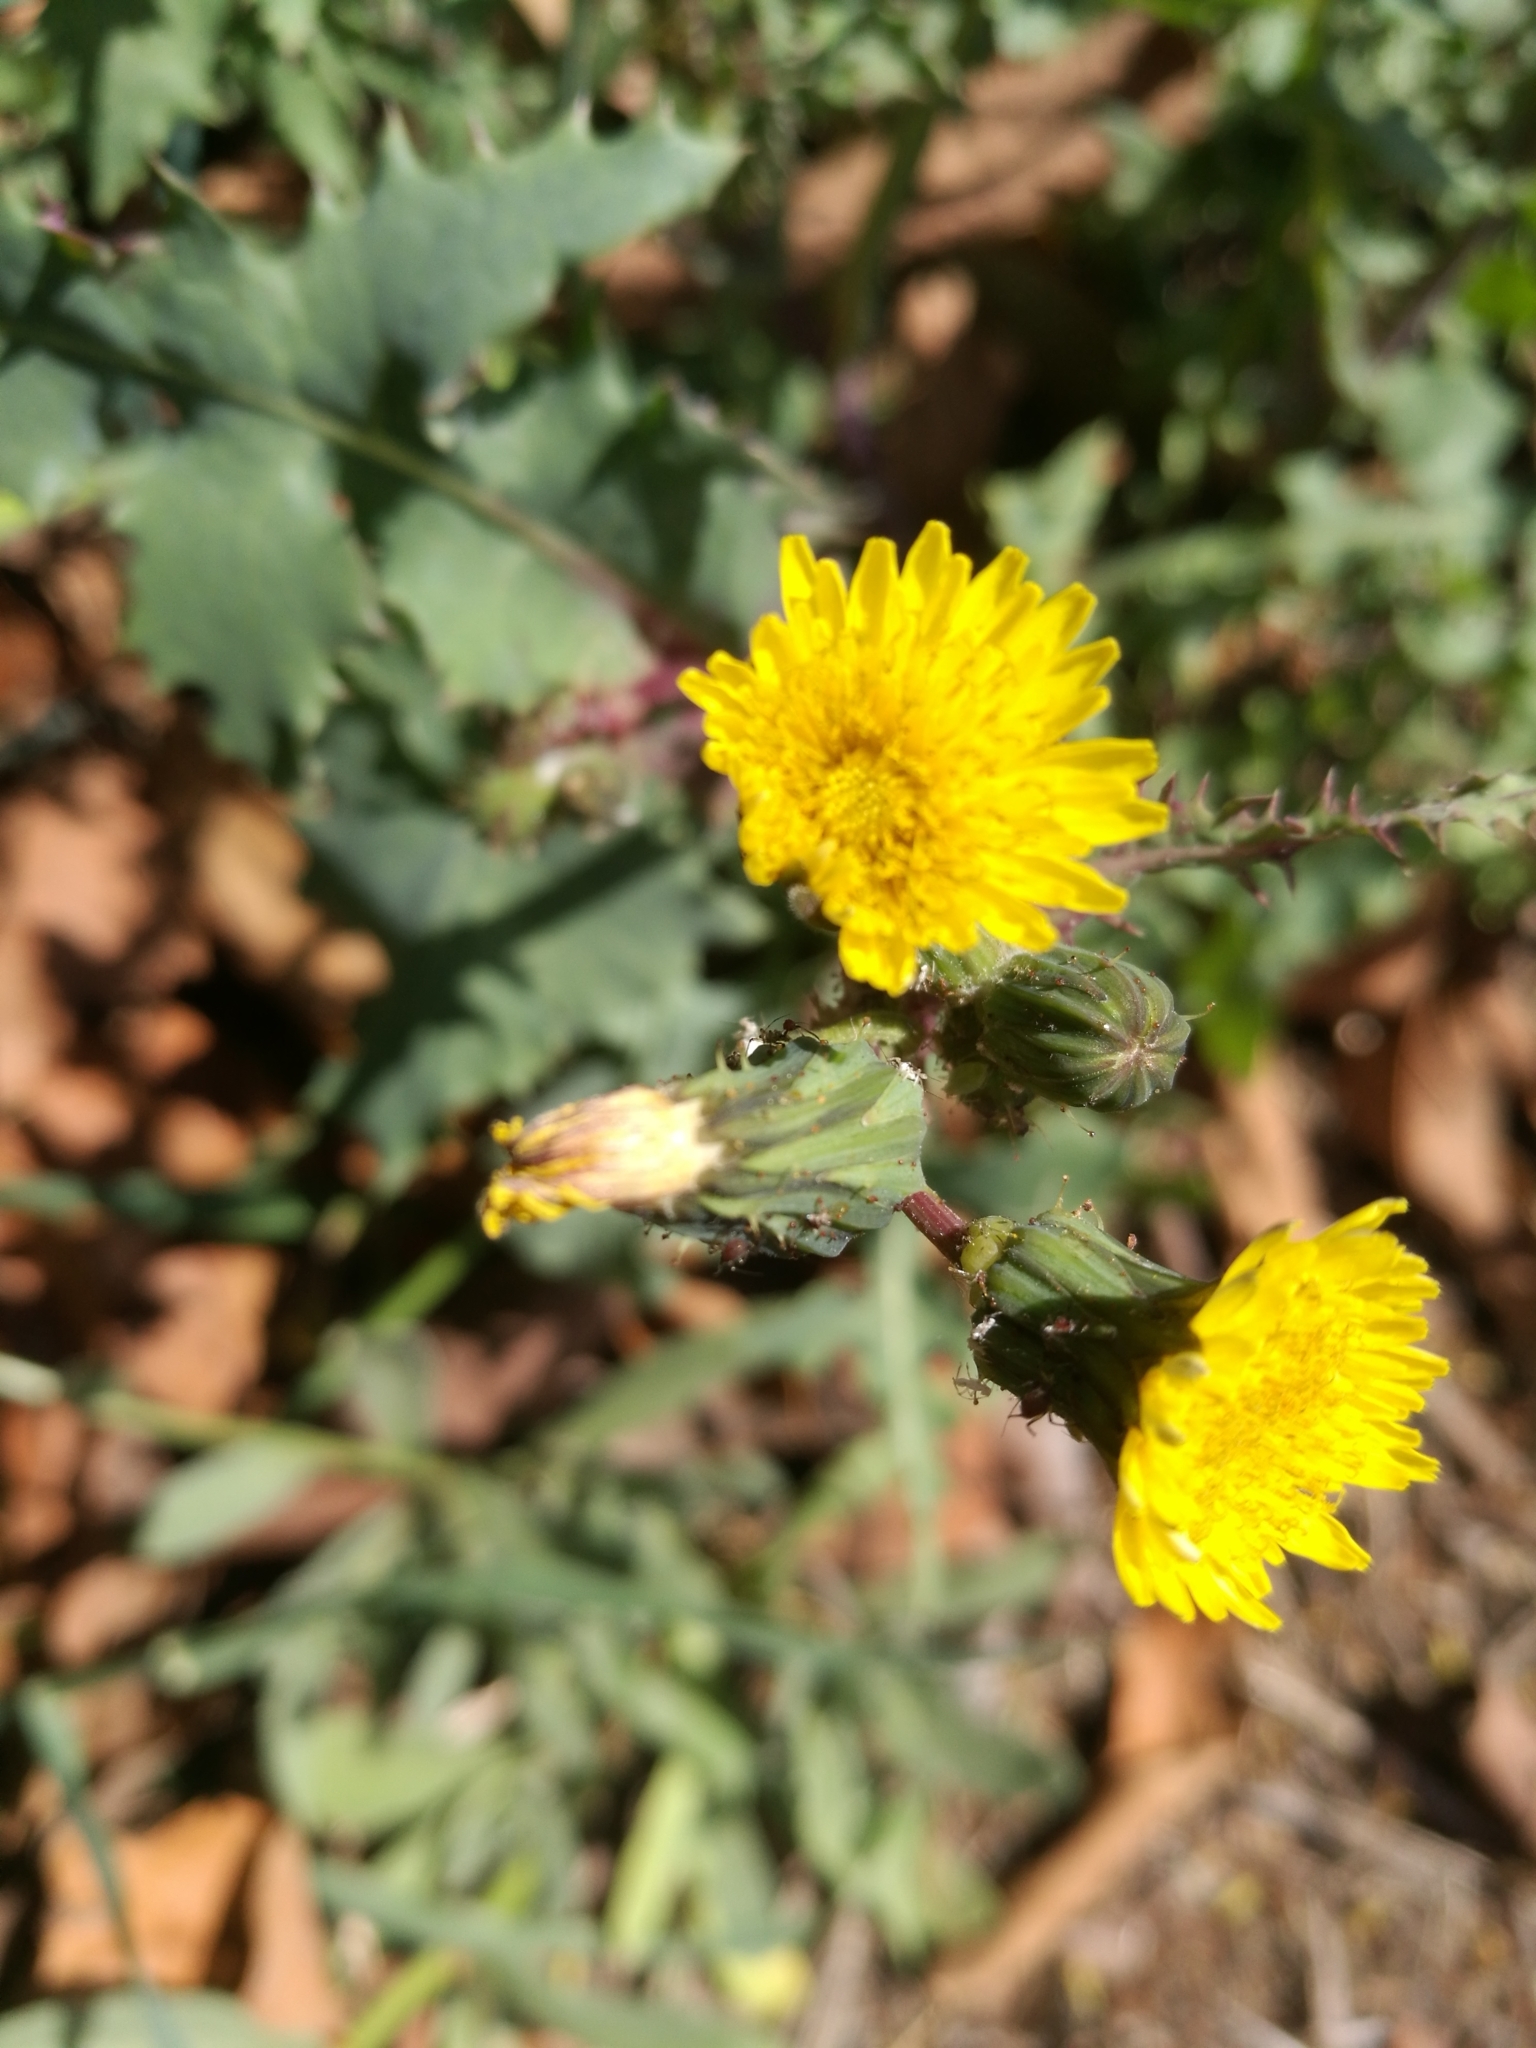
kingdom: Plantae
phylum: Tracheophyta
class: Magnoliopsida
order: Asterales
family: Asteraceae
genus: Sonchus
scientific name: Sonchus asper
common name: Prickly sow-thistle
